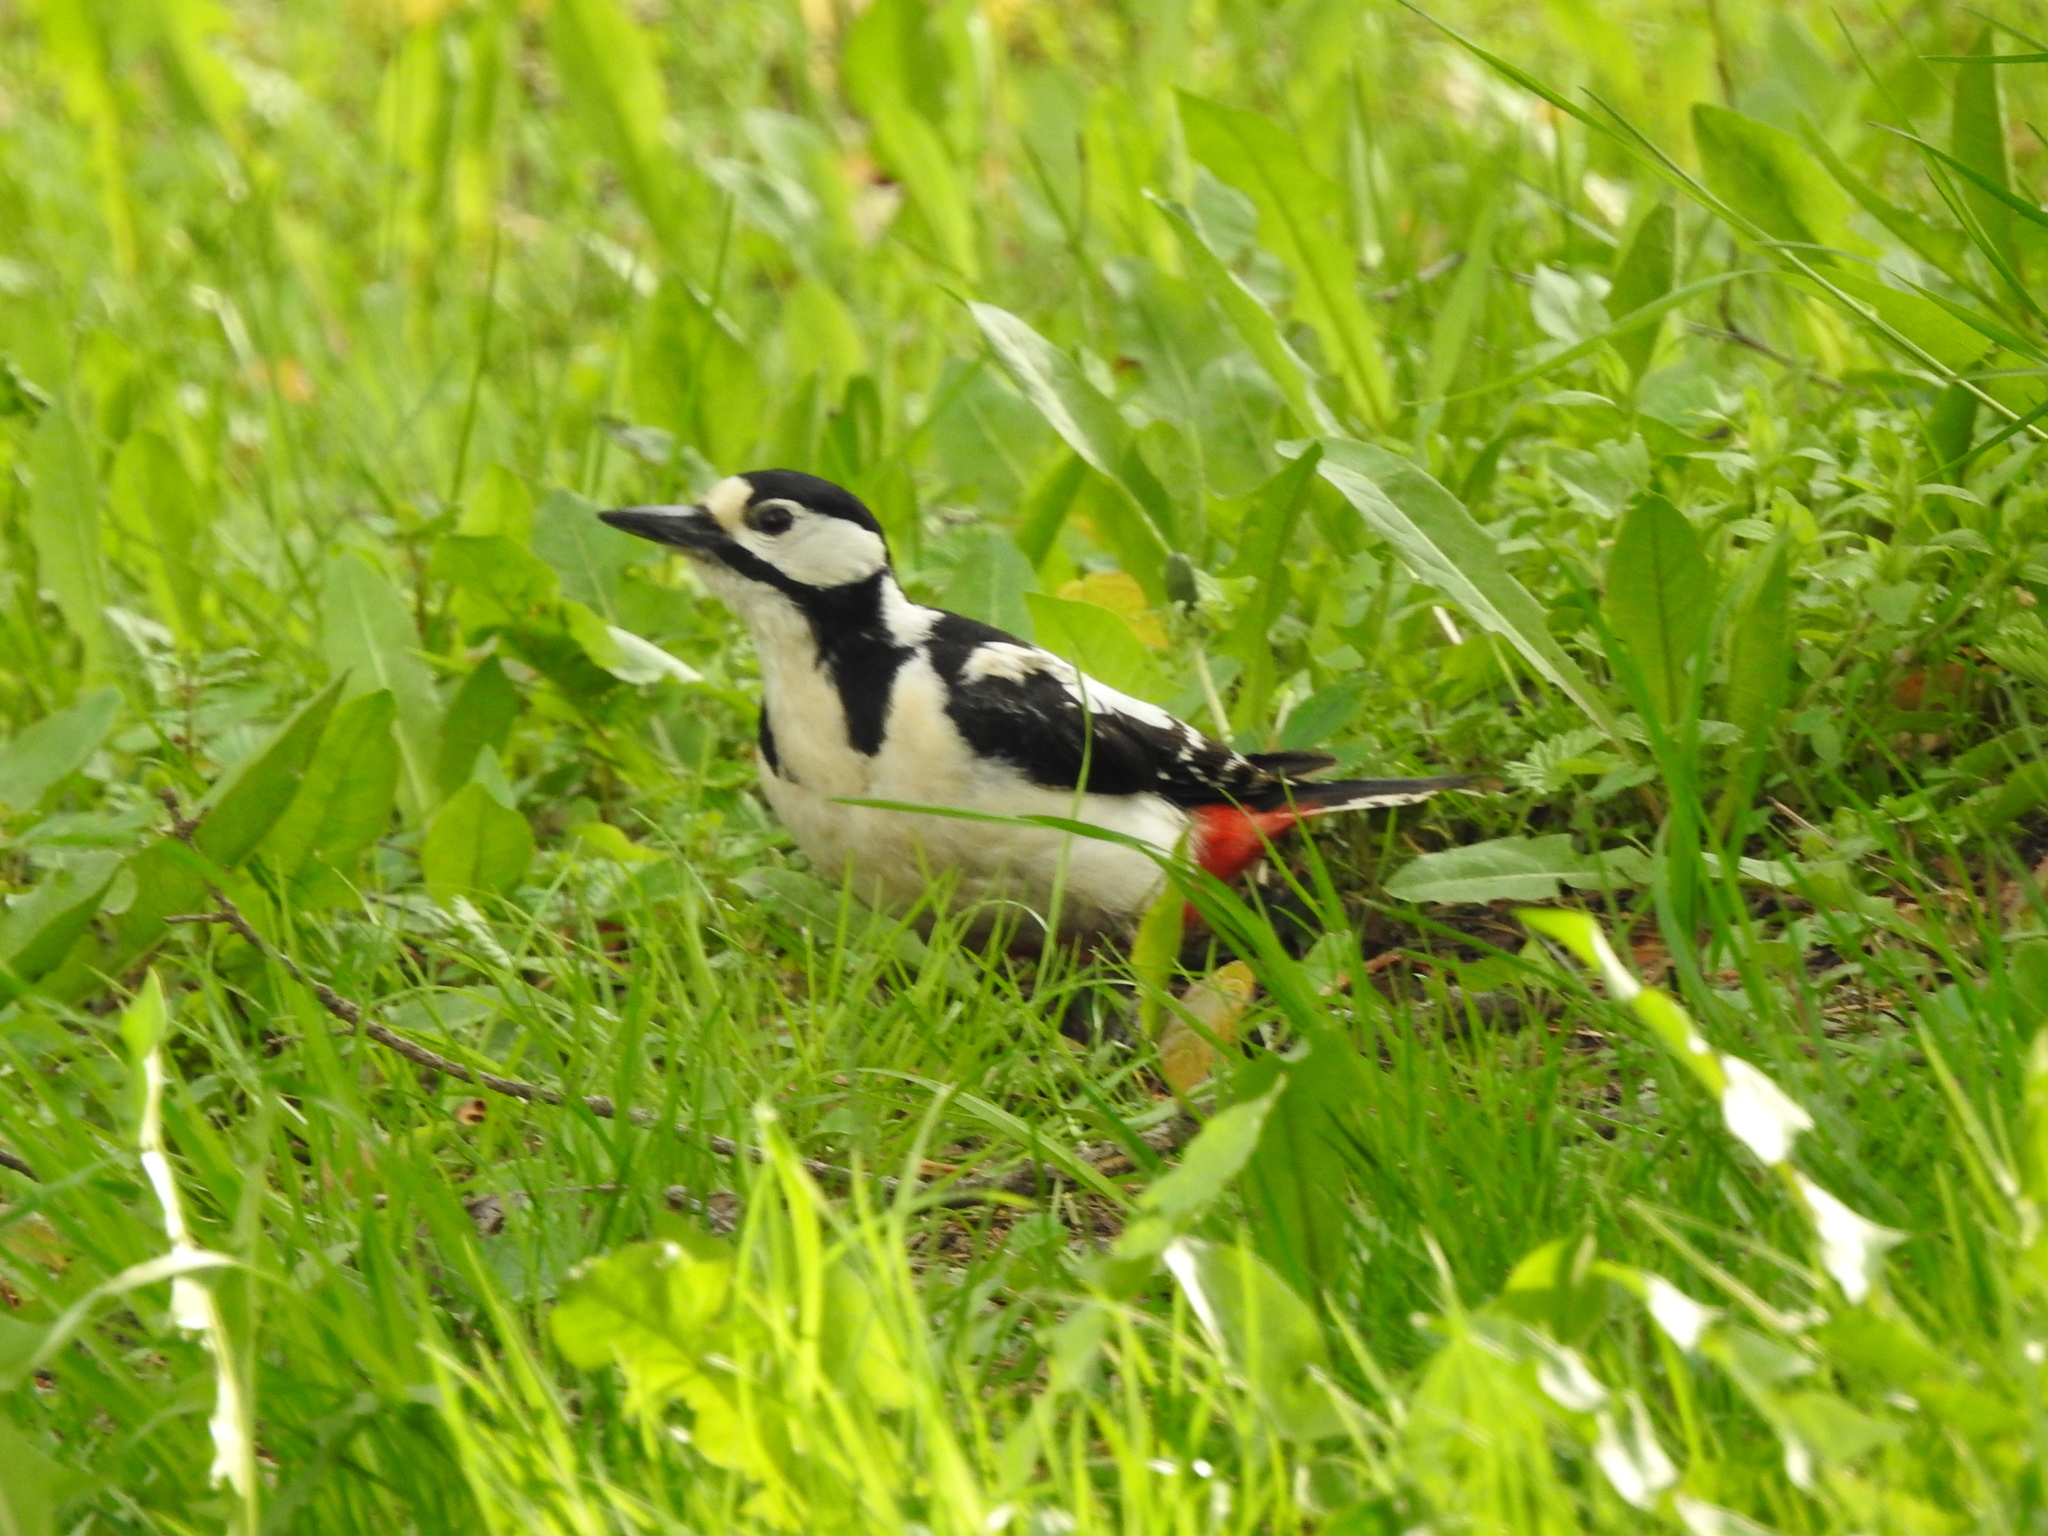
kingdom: Animalia
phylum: Chordata
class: Aves
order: Piciformes
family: Picidae
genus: Dendrocopos
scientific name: Dendrocopos major
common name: Great spotted woodpecker
